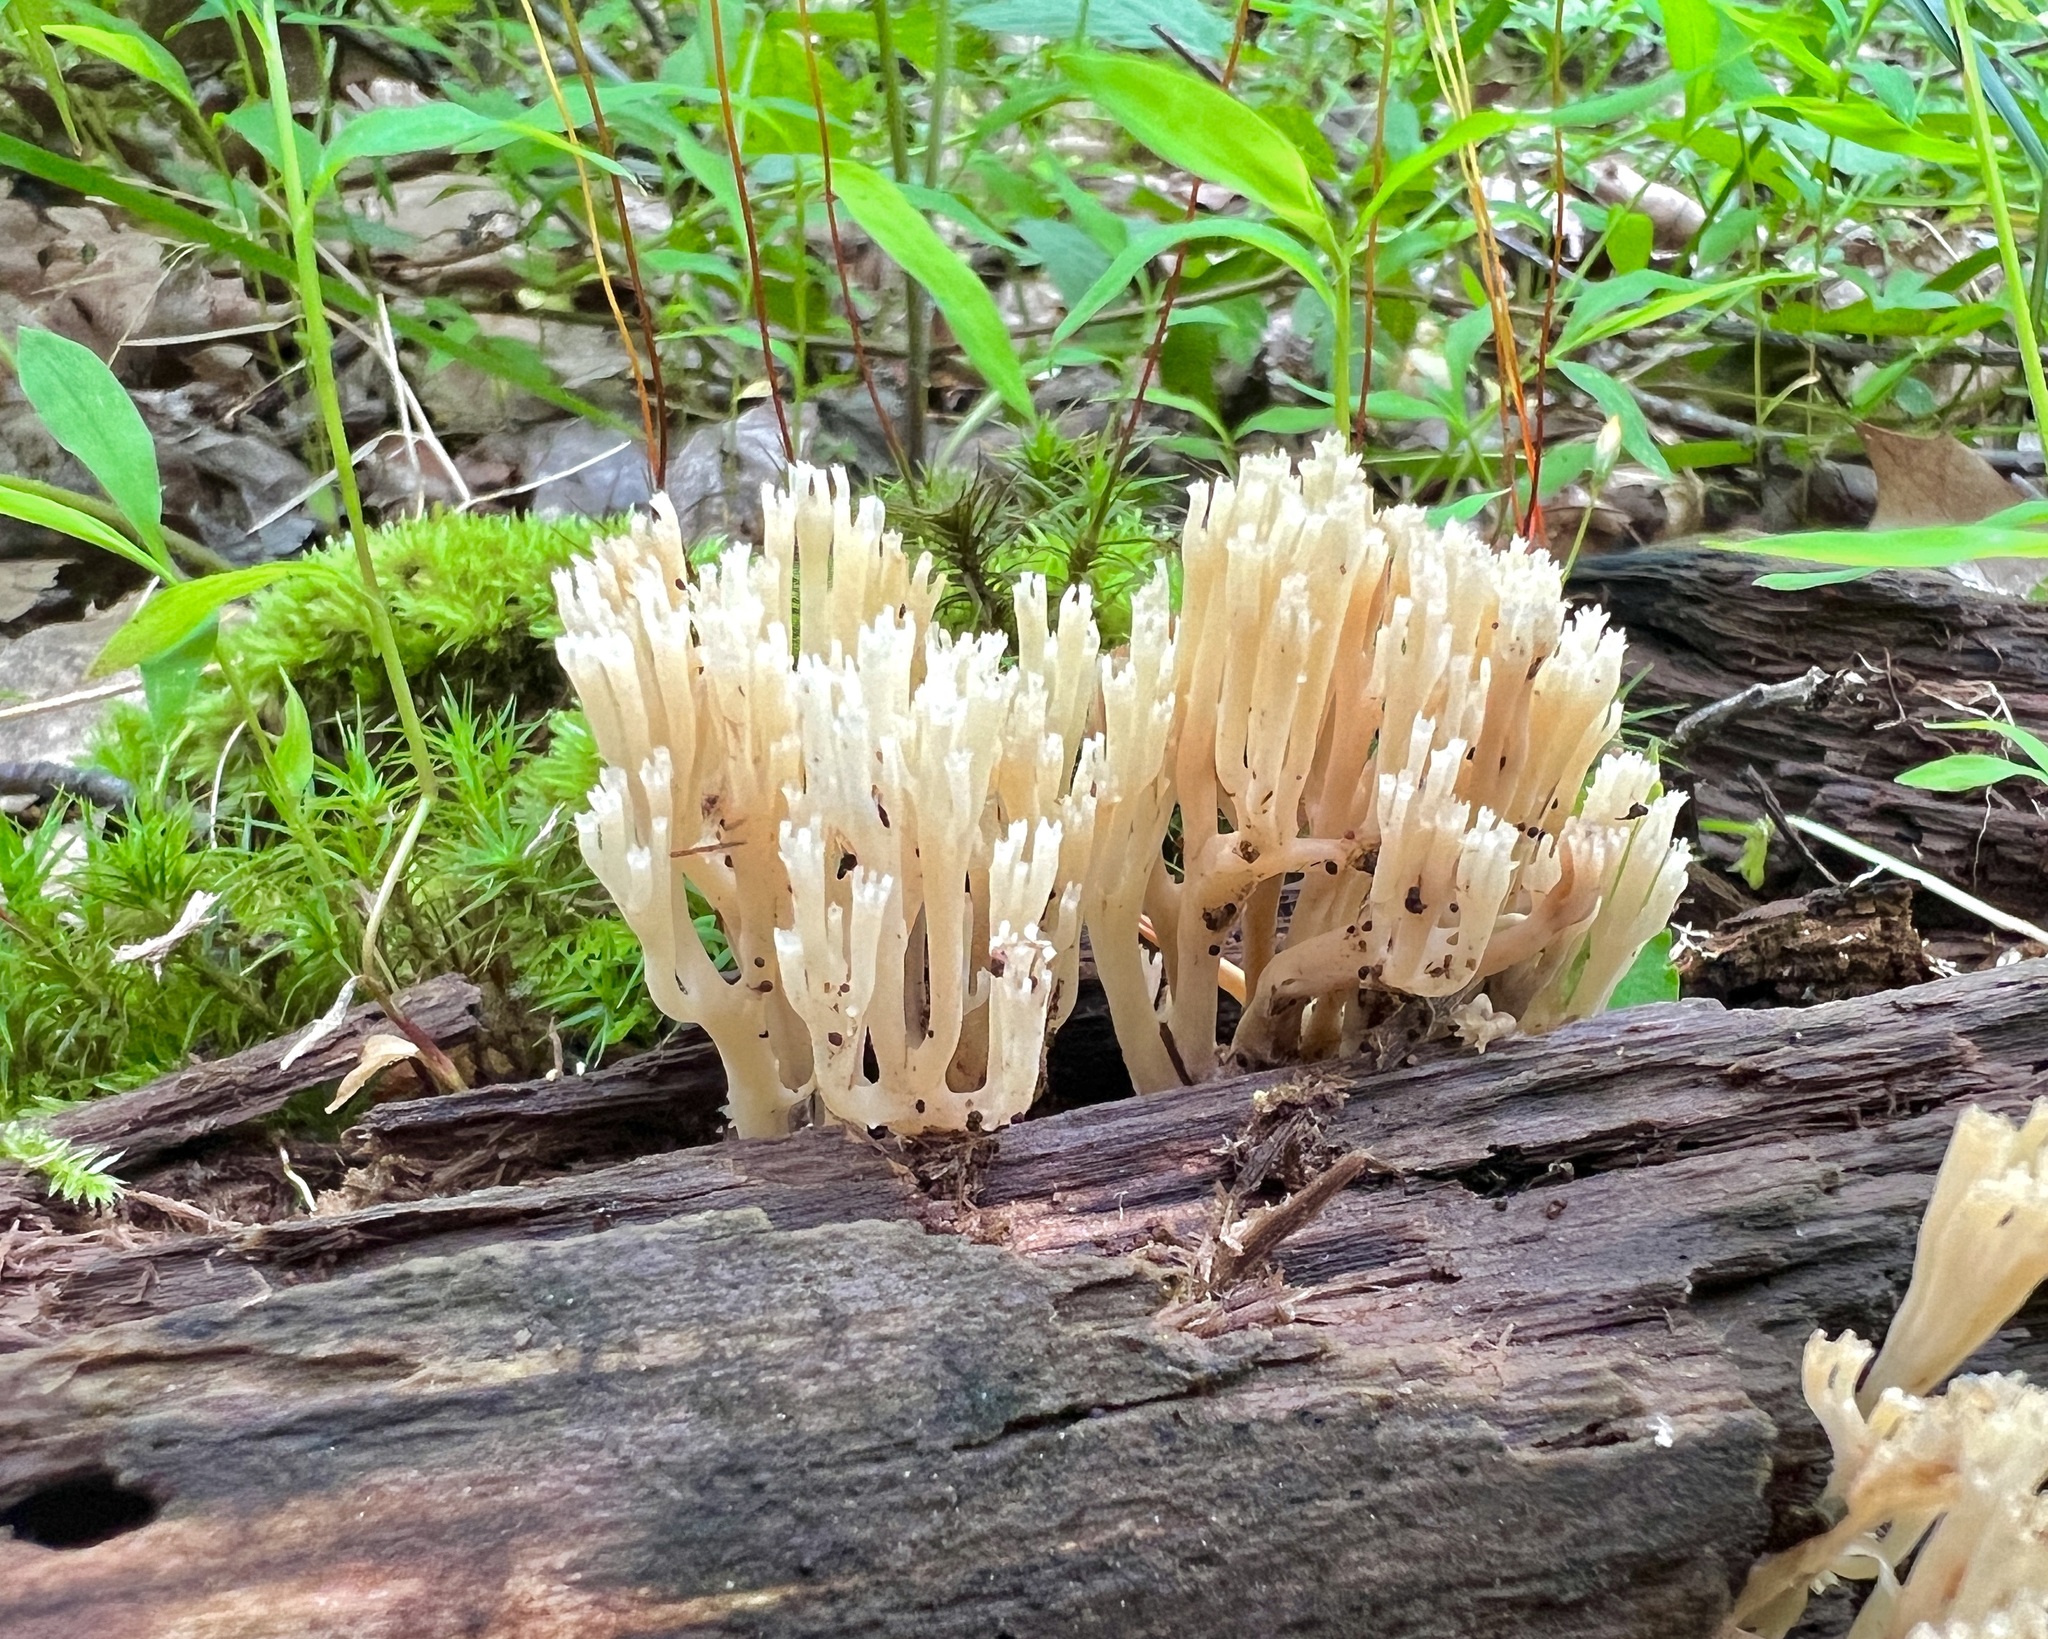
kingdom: Fungi
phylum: Basidiomycota
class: Agaricomycetes
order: Russulales
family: Auriscalpiaceae
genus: Artomyces
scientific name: Artomyces pyxidatus
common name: Crown-tipped coral fungus
